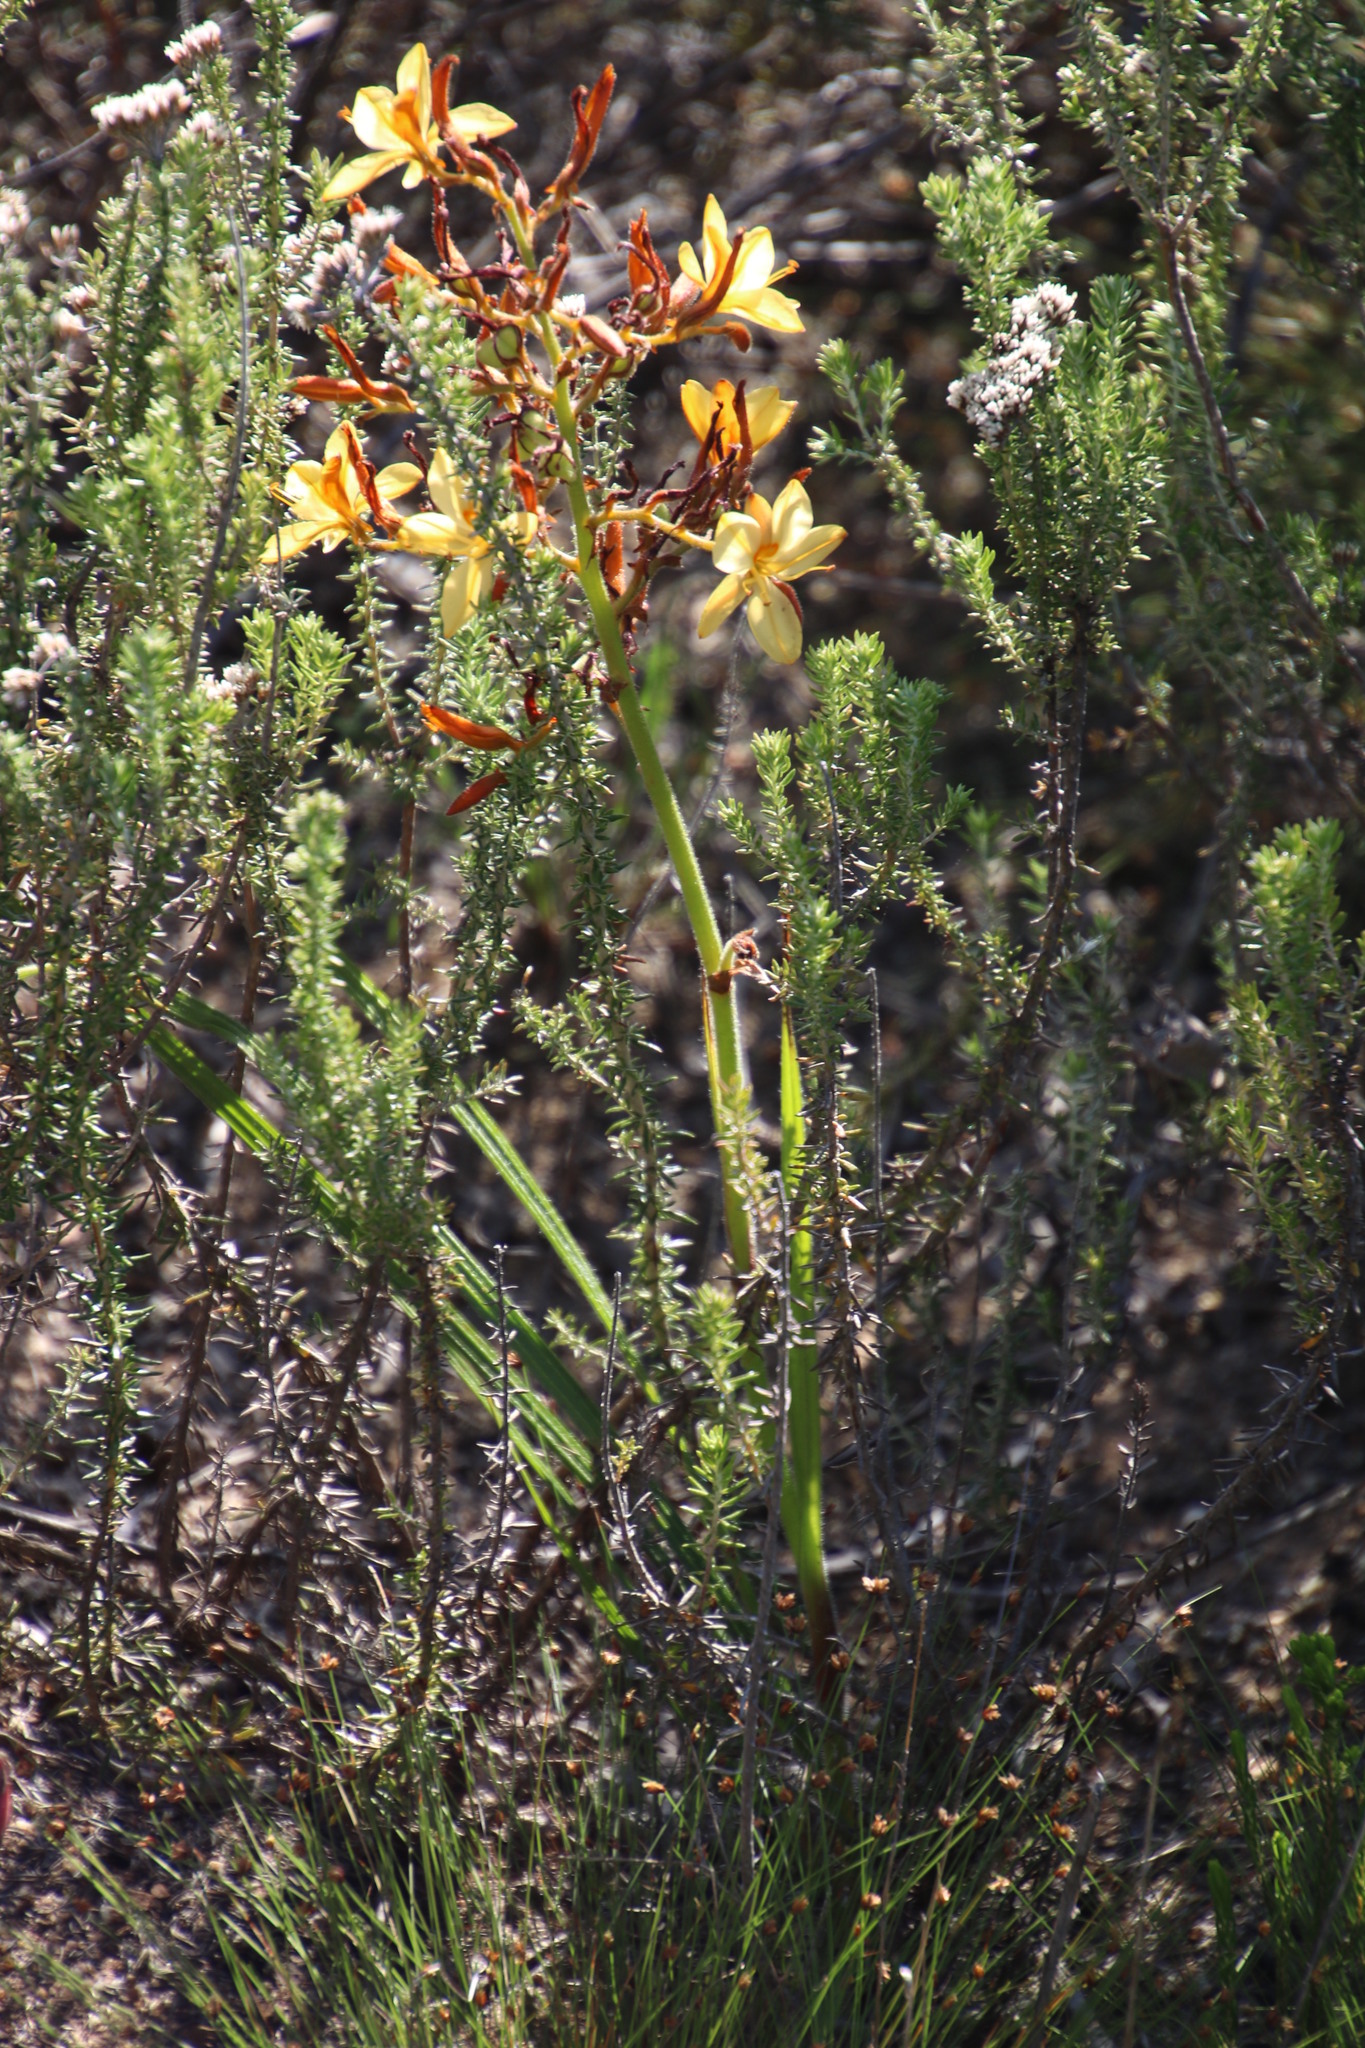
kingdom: Plantae
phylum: Tracheophyta
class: Liliopsida
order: Commelinales
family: Haemodoraceae
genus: Wachendorfia
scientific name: Wachendorfia paniculata
